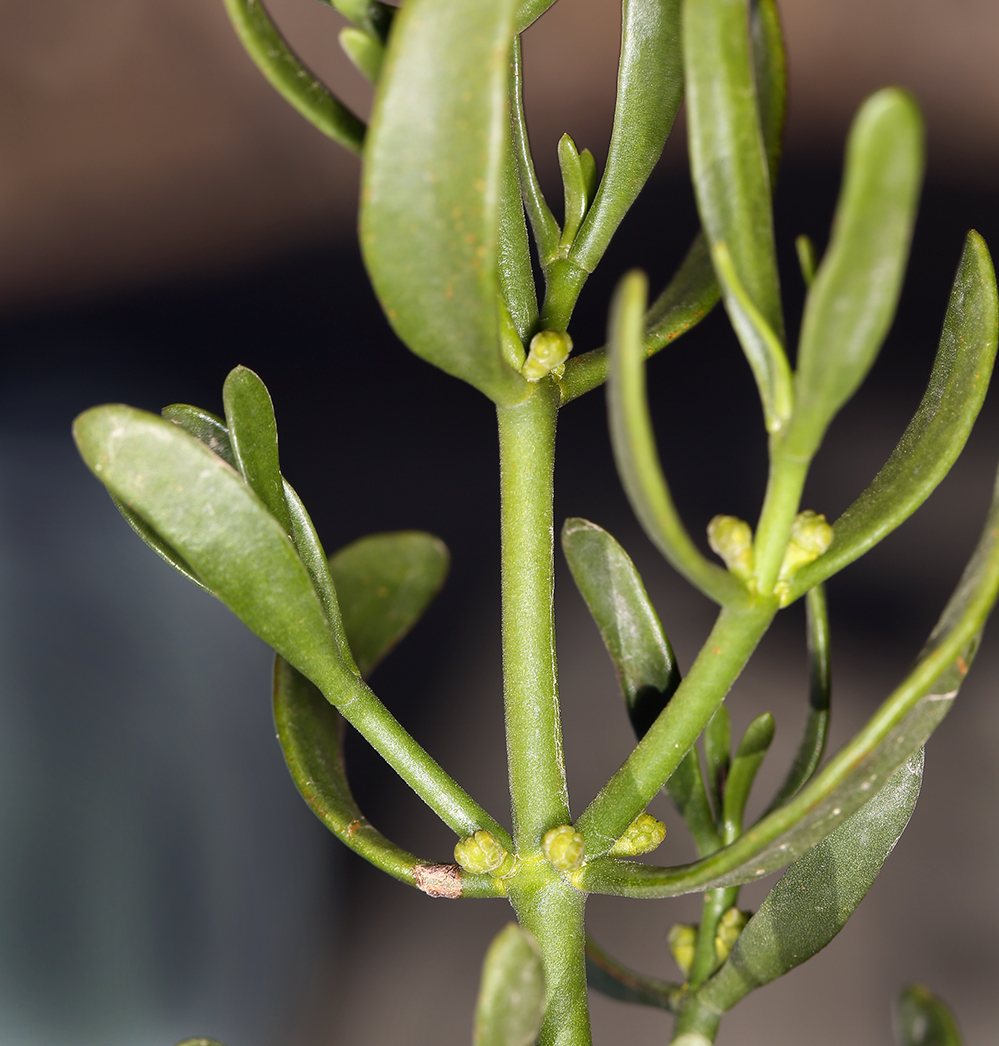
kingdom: Plantae
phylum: Tracheophyta
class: Magnoliopsida
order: Santalales
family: Viscaceae
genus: Phoradendron
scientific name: Phoradendron bolleanum
